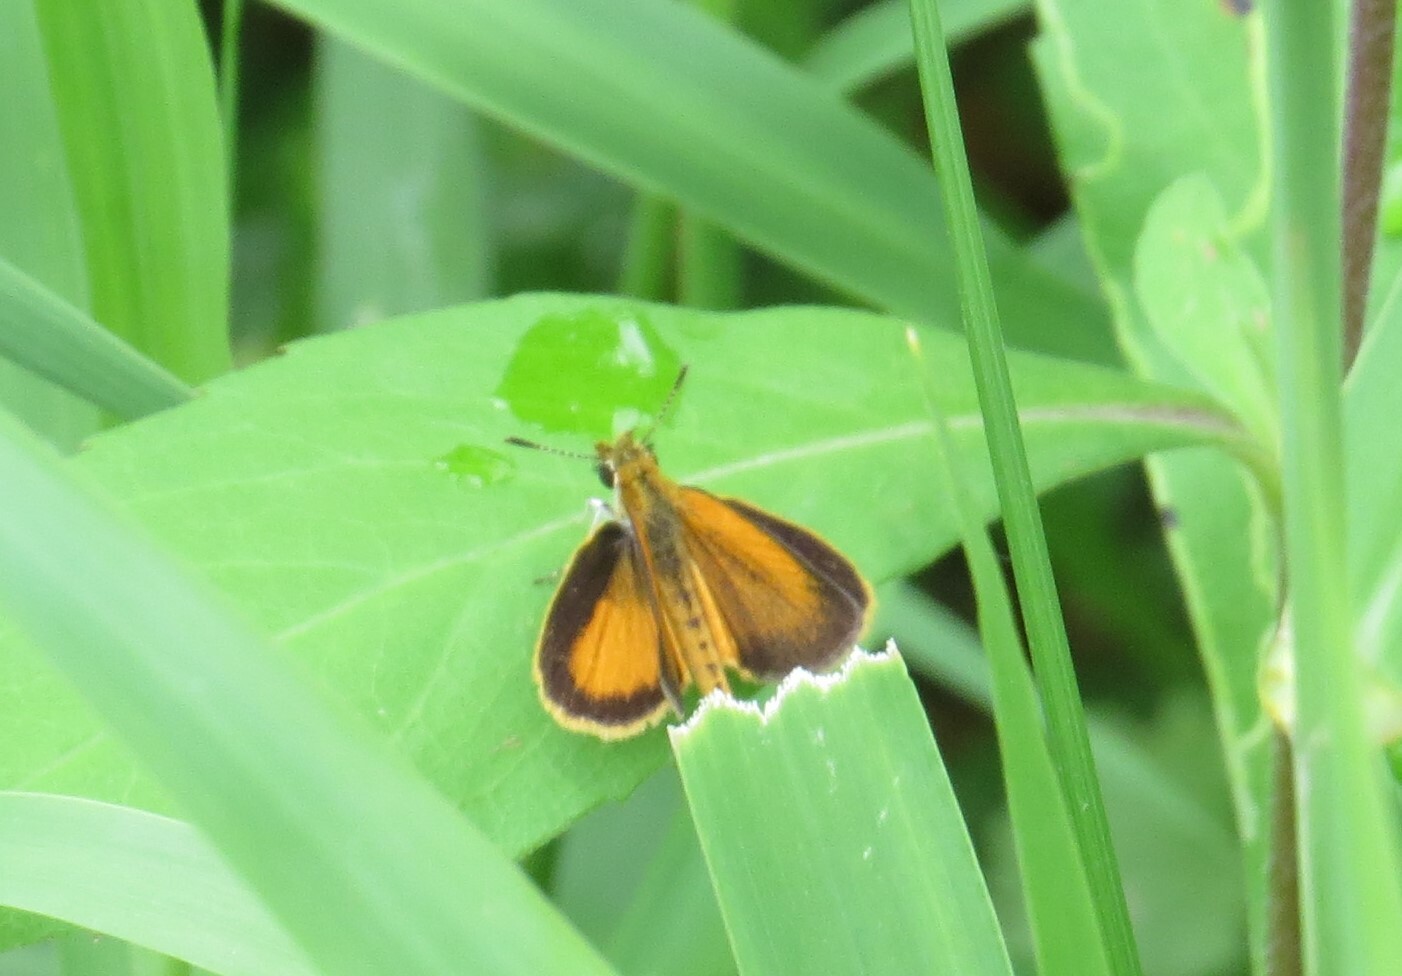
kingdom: Animalia
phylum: Arthropoda
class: Insecta
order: Lepidoptera
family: Hesperiidae
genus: Ancyloxypha
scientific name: Ancyloxypha numitor
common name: Least skipper
